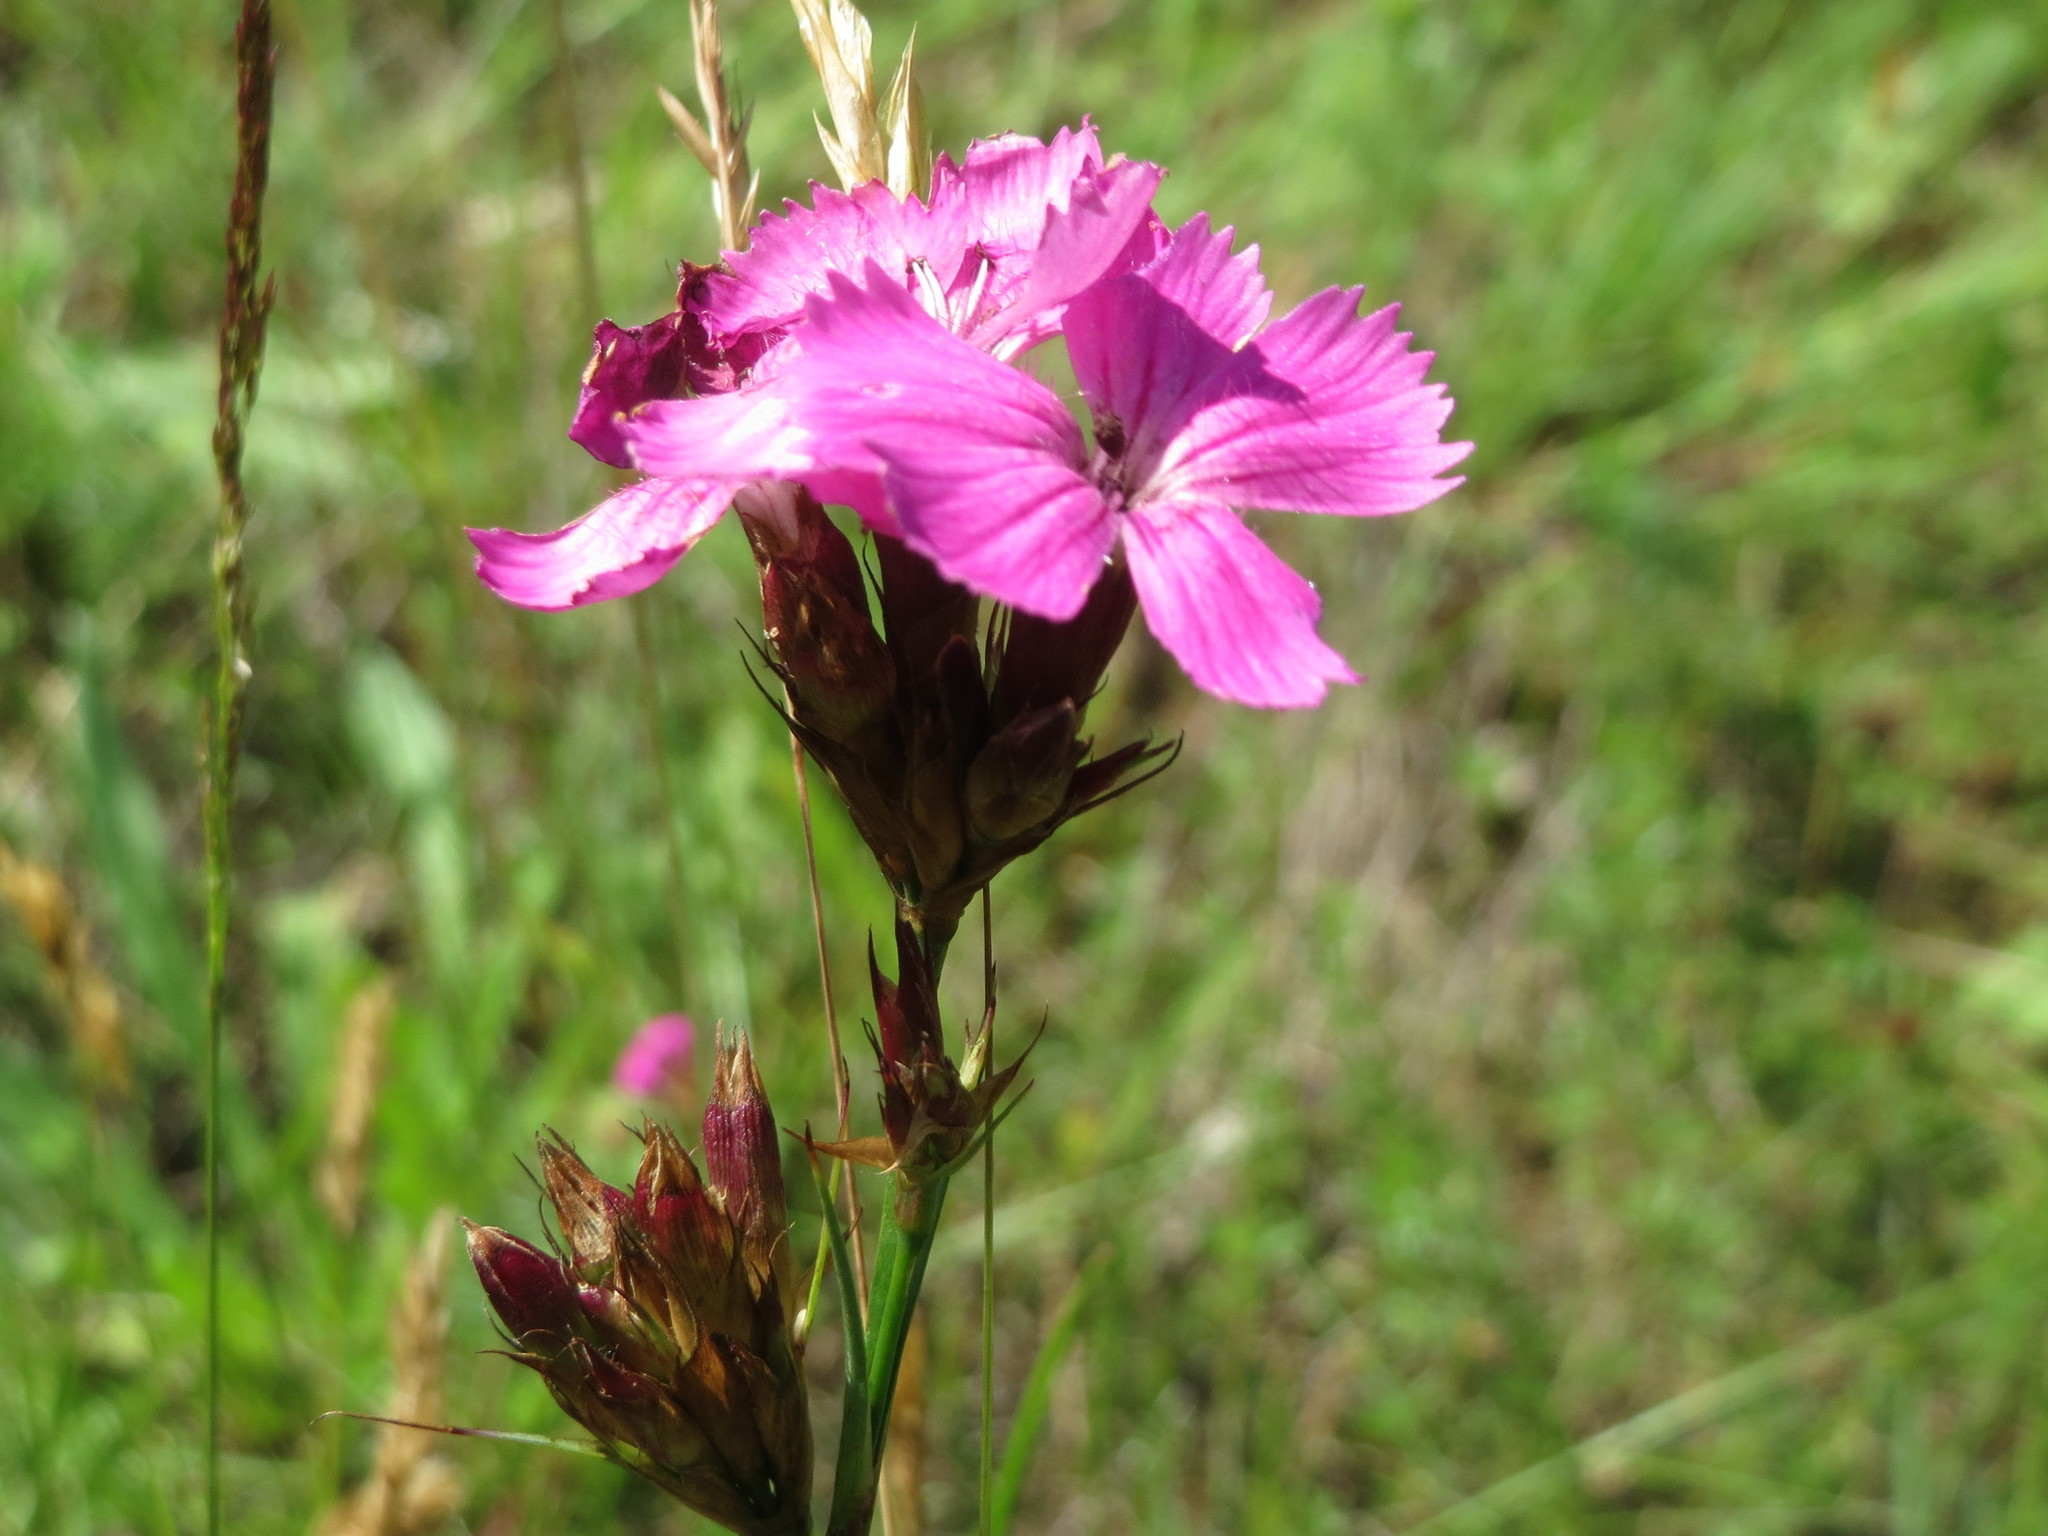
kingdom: Plantae
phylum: Tracheophyta
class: Magnoliopsida
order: Caryophyllales
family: Caryophyllaceae
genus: Dianthus
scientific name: Dianthus carthusianorum
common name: Carthusian pink
